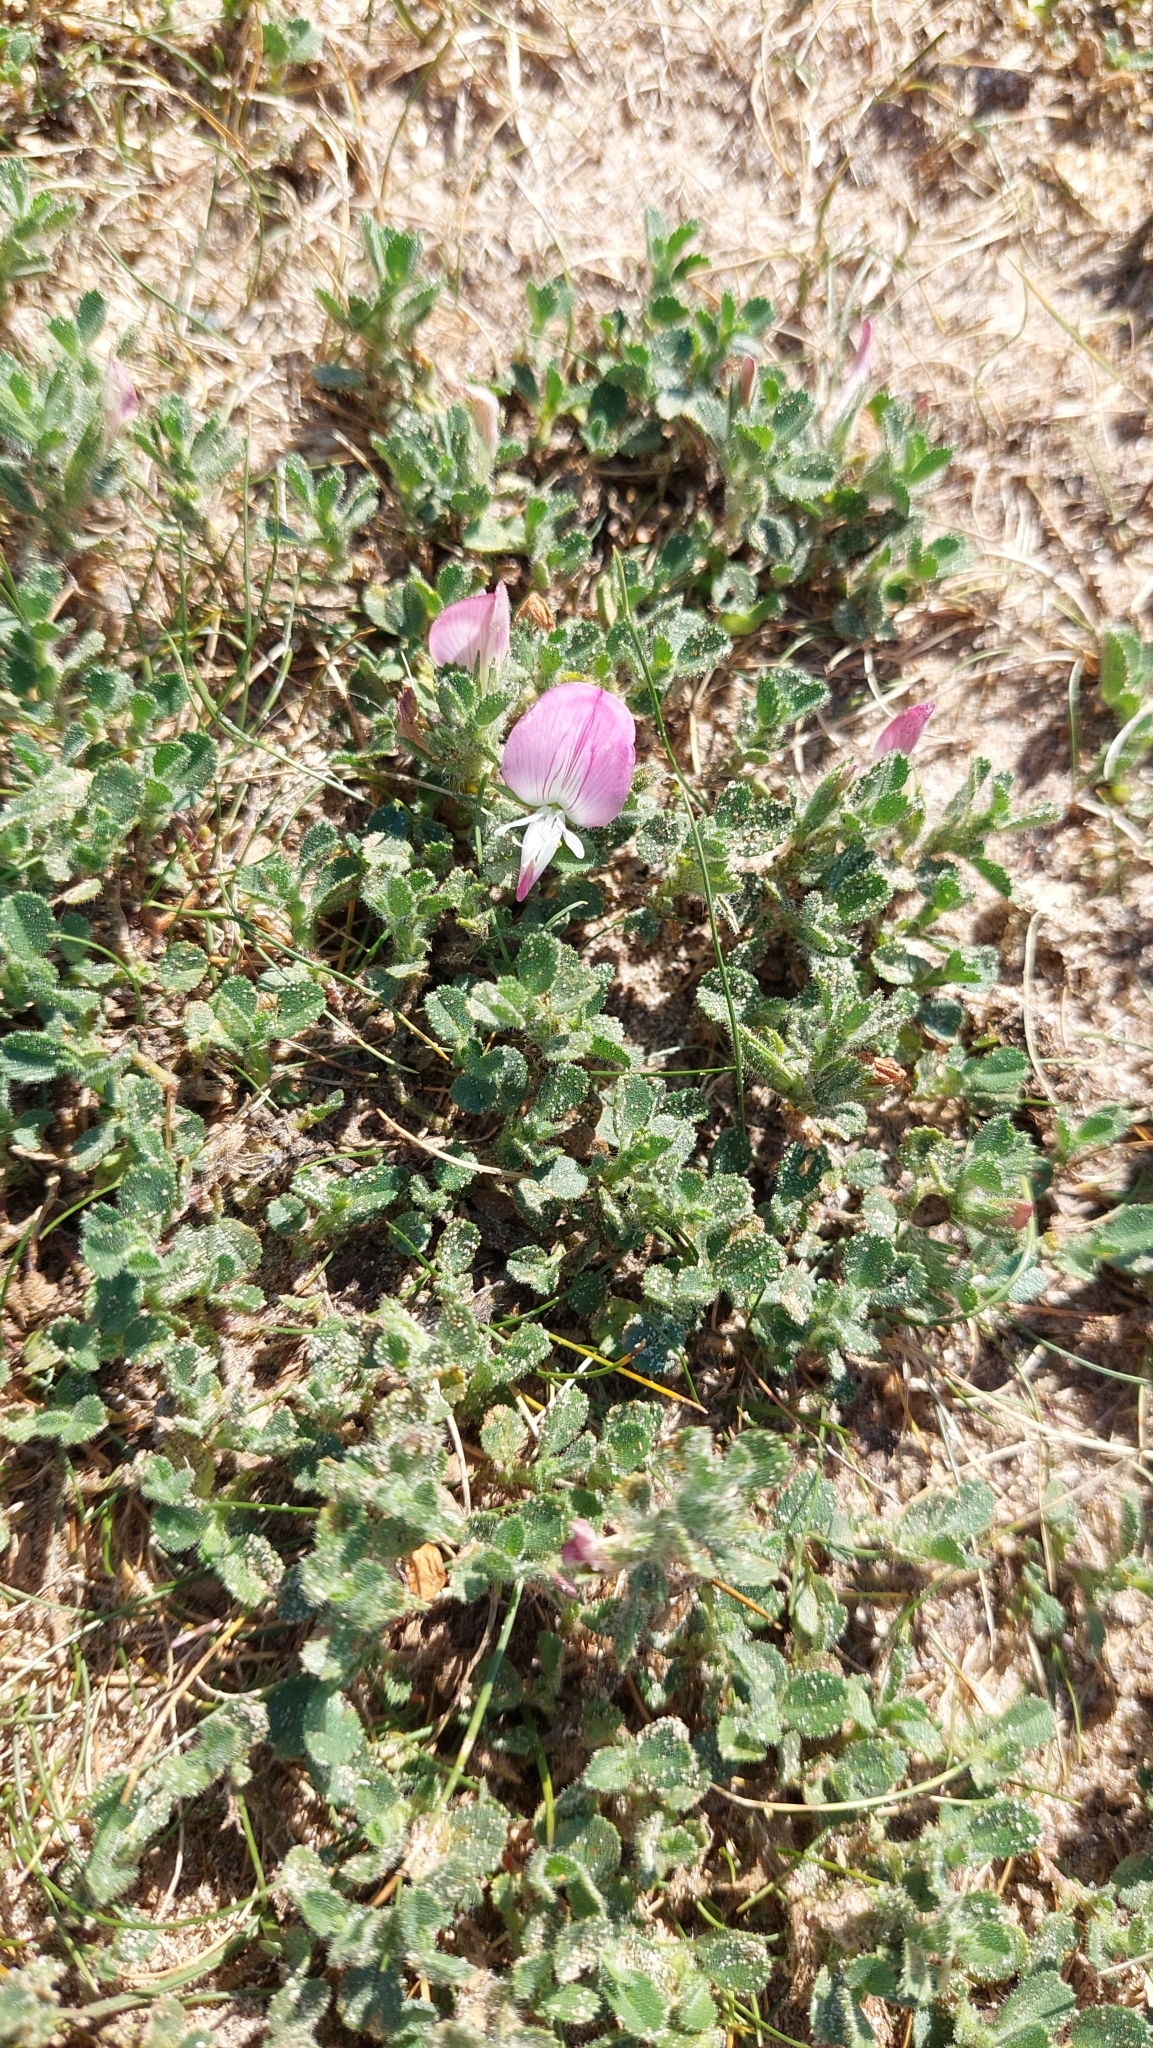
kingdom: Plantae
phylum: Tracheophyta
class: Magnoliopsida
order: Fabales
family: Fabaceae
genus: Ononis
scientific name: Ononis spinosa
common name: Spiny restharrow
